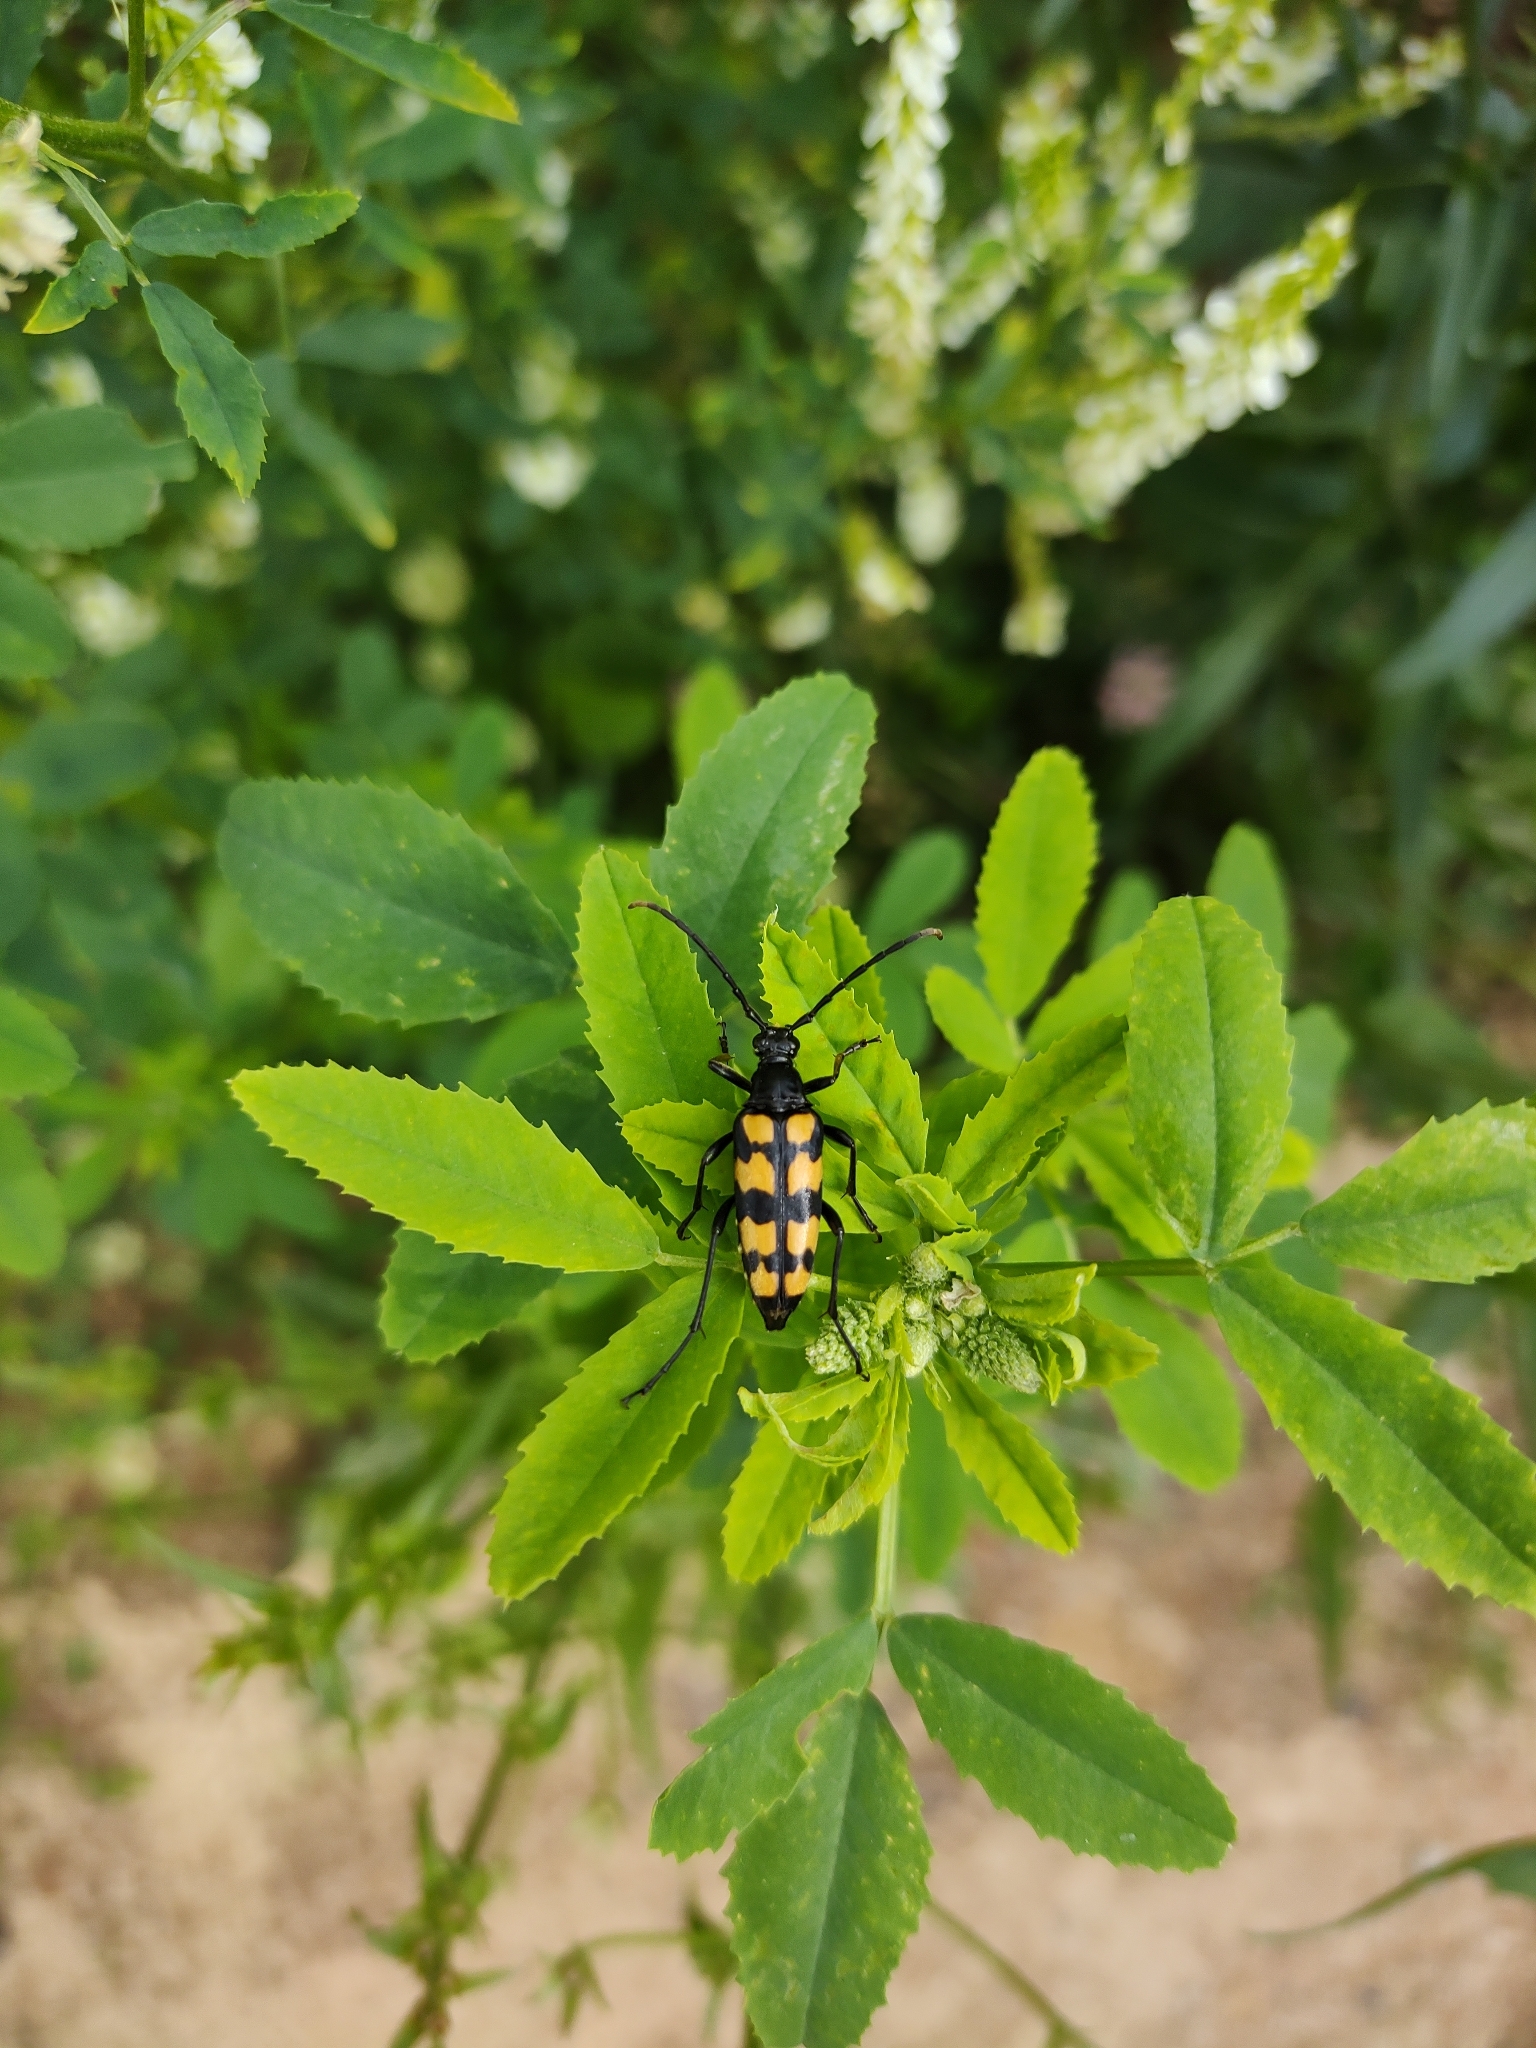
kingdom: Animalia
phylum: Arthropoda
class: Insecta
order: Coleoptera
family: Cerambycidae
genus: Leptura
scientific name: Leptura quadrifasciata
